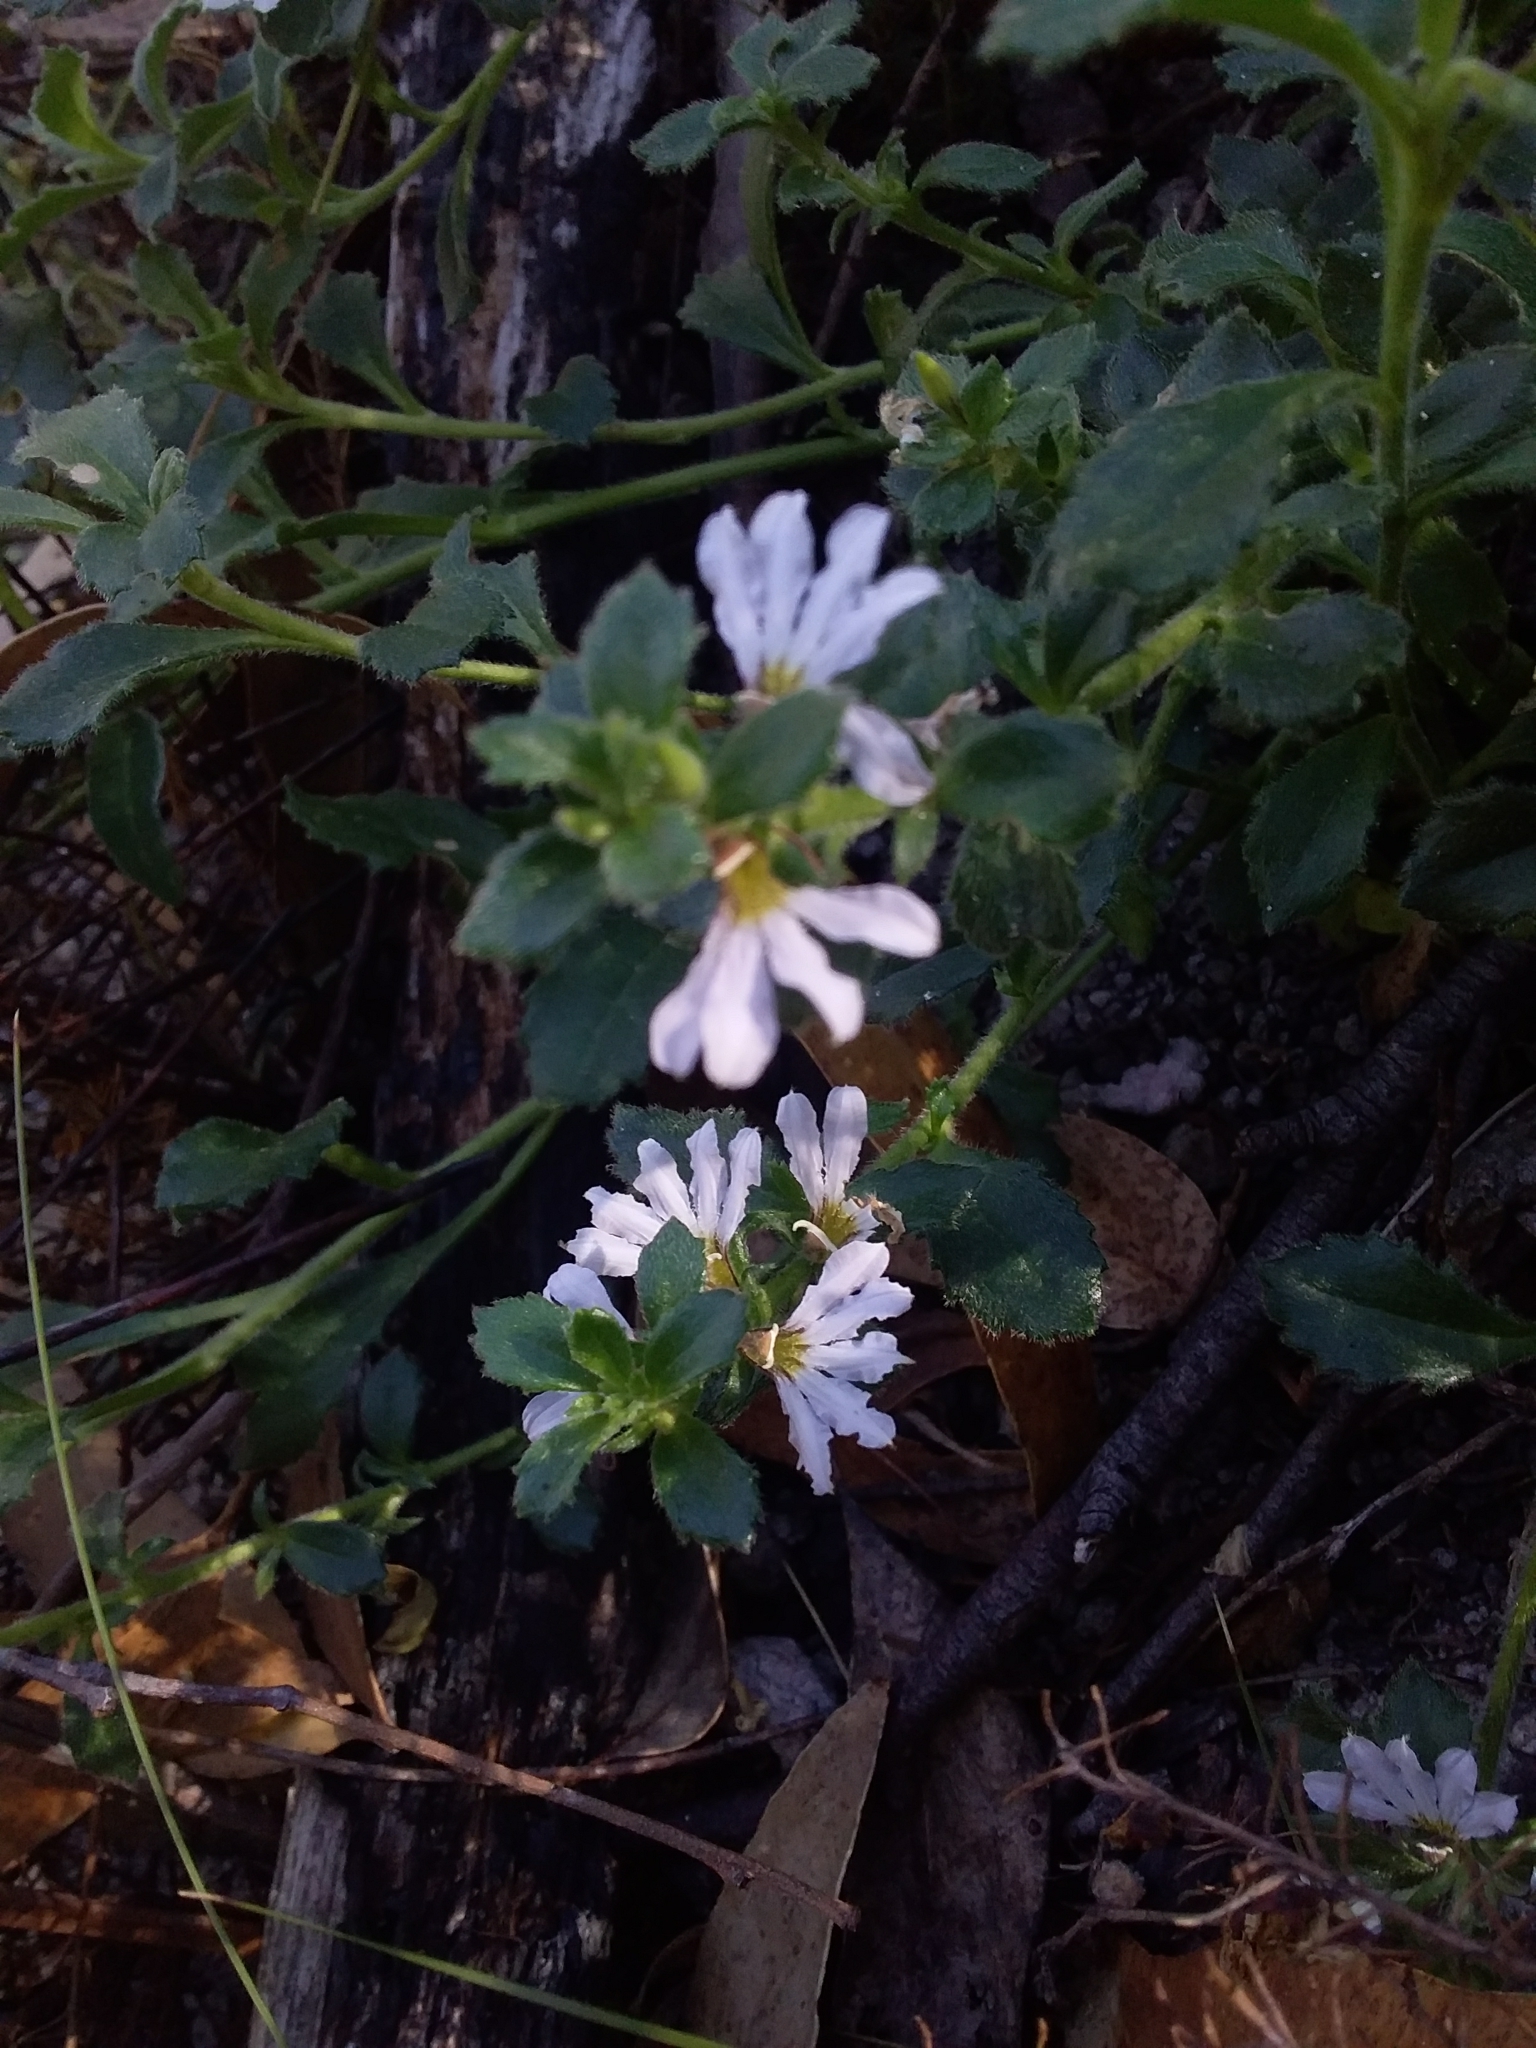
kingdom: Plantae
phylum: Tracheophyta
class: Magnoliopsida
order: Asterales
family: Goodeniaceae
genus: Scaevola
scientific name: Scaevola albida
